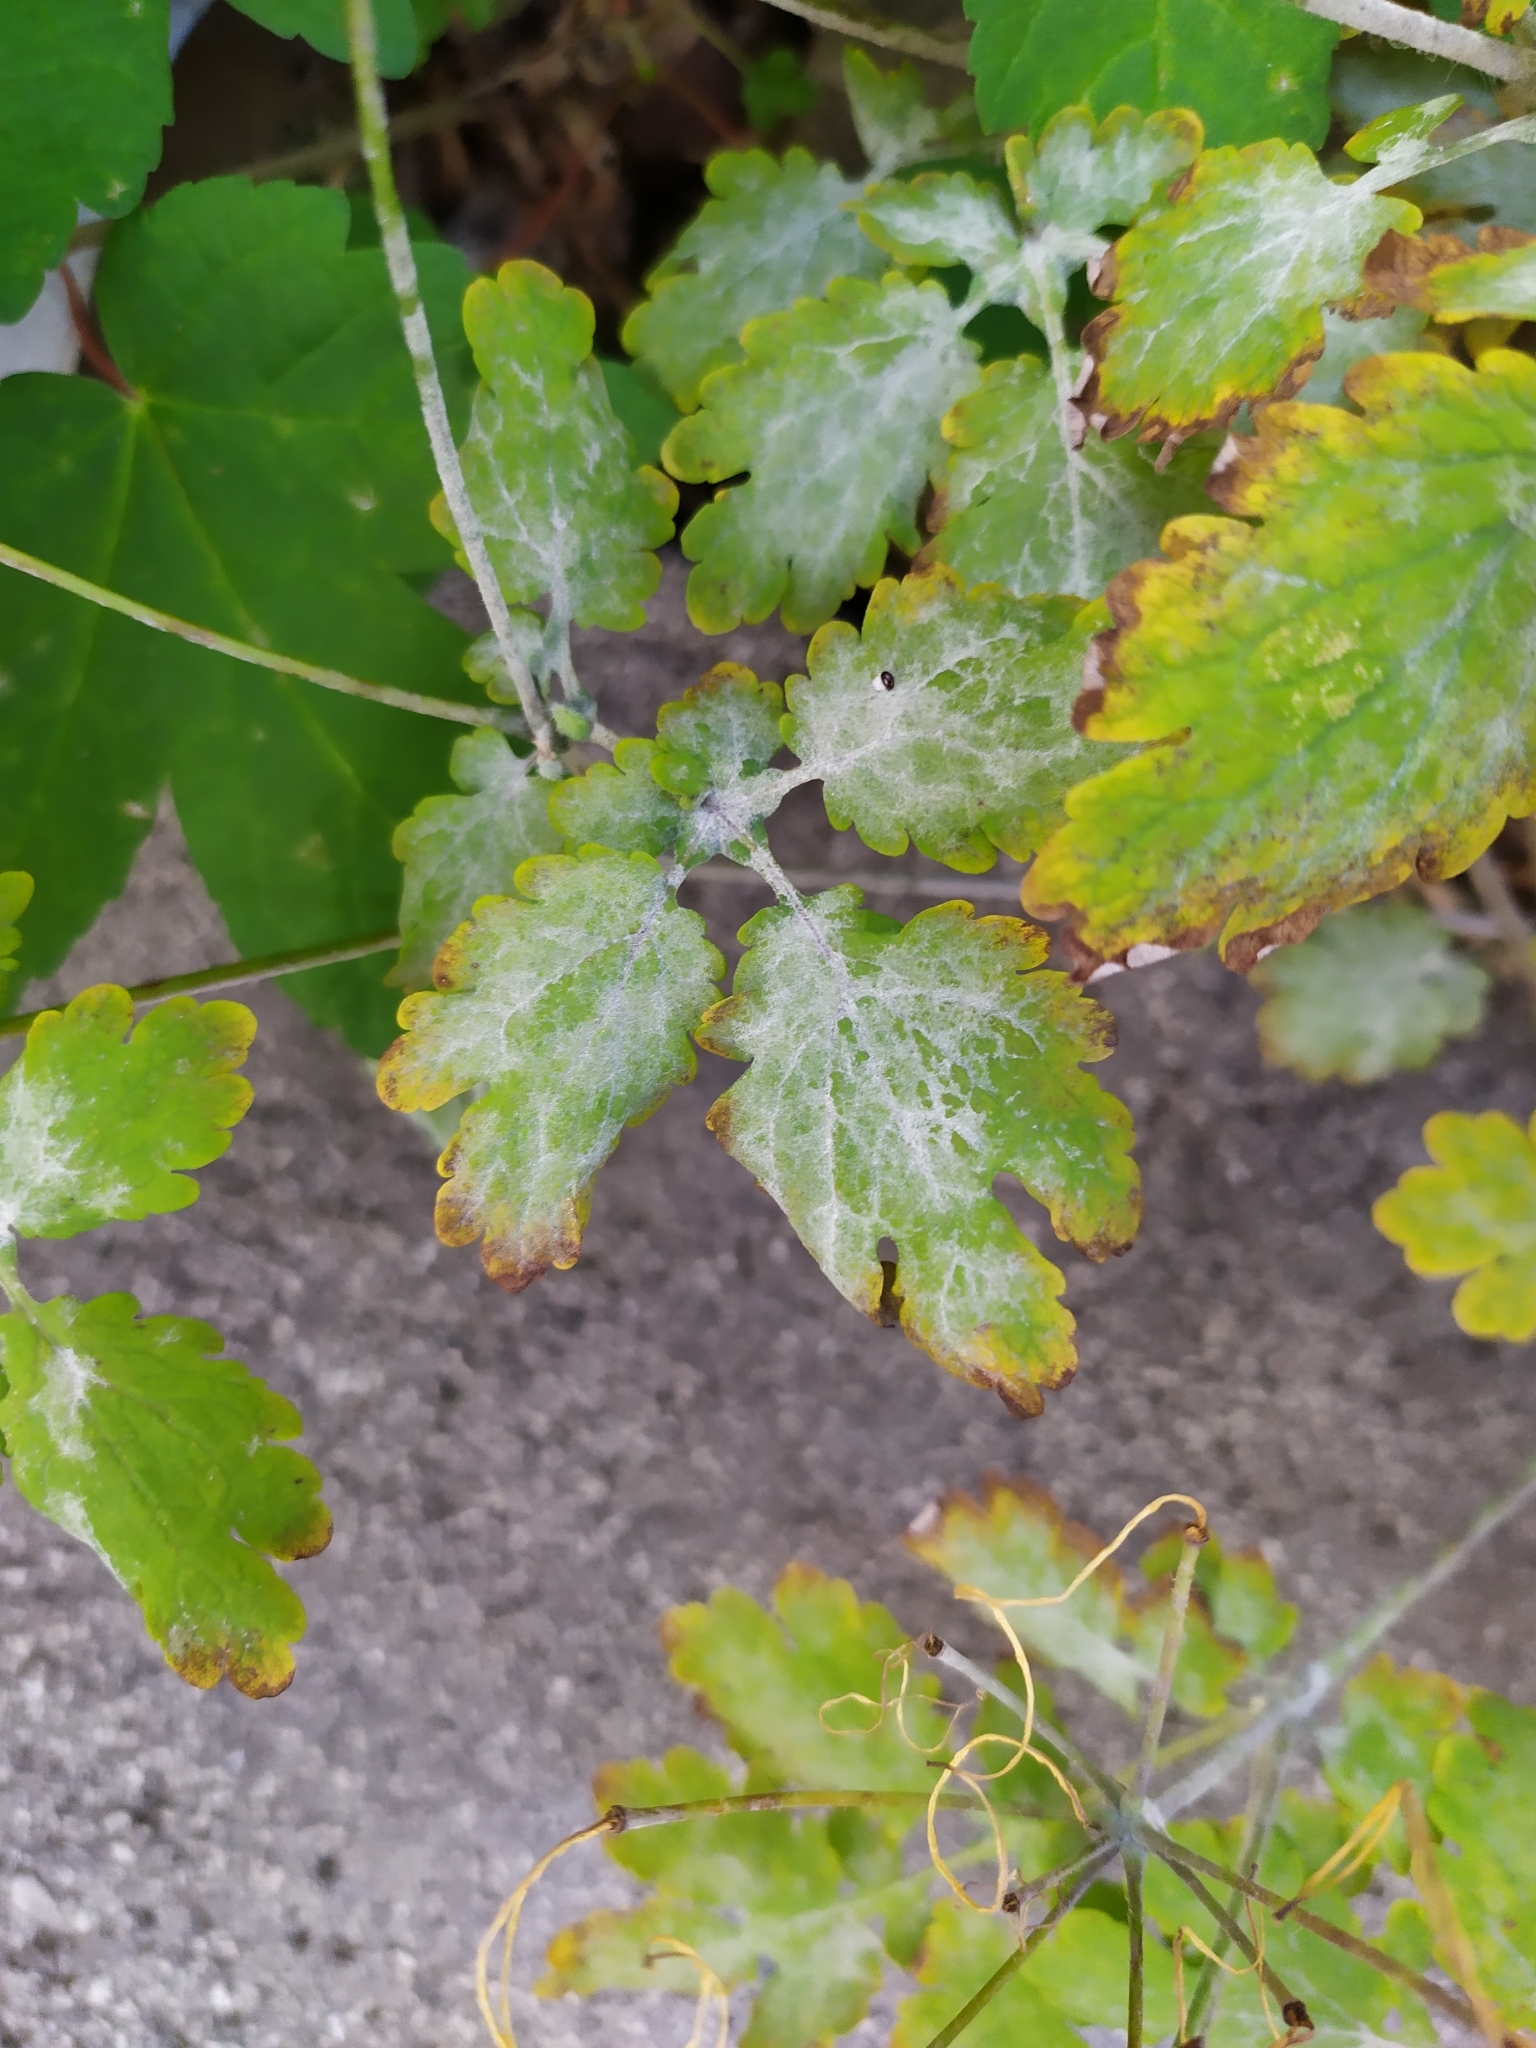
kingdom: Fungi
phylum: Ascomycota
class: Leotiomycetes
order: Helotiales
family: Erysiphaceae
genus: Erysiphe
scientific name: Erysiphe macleayae
